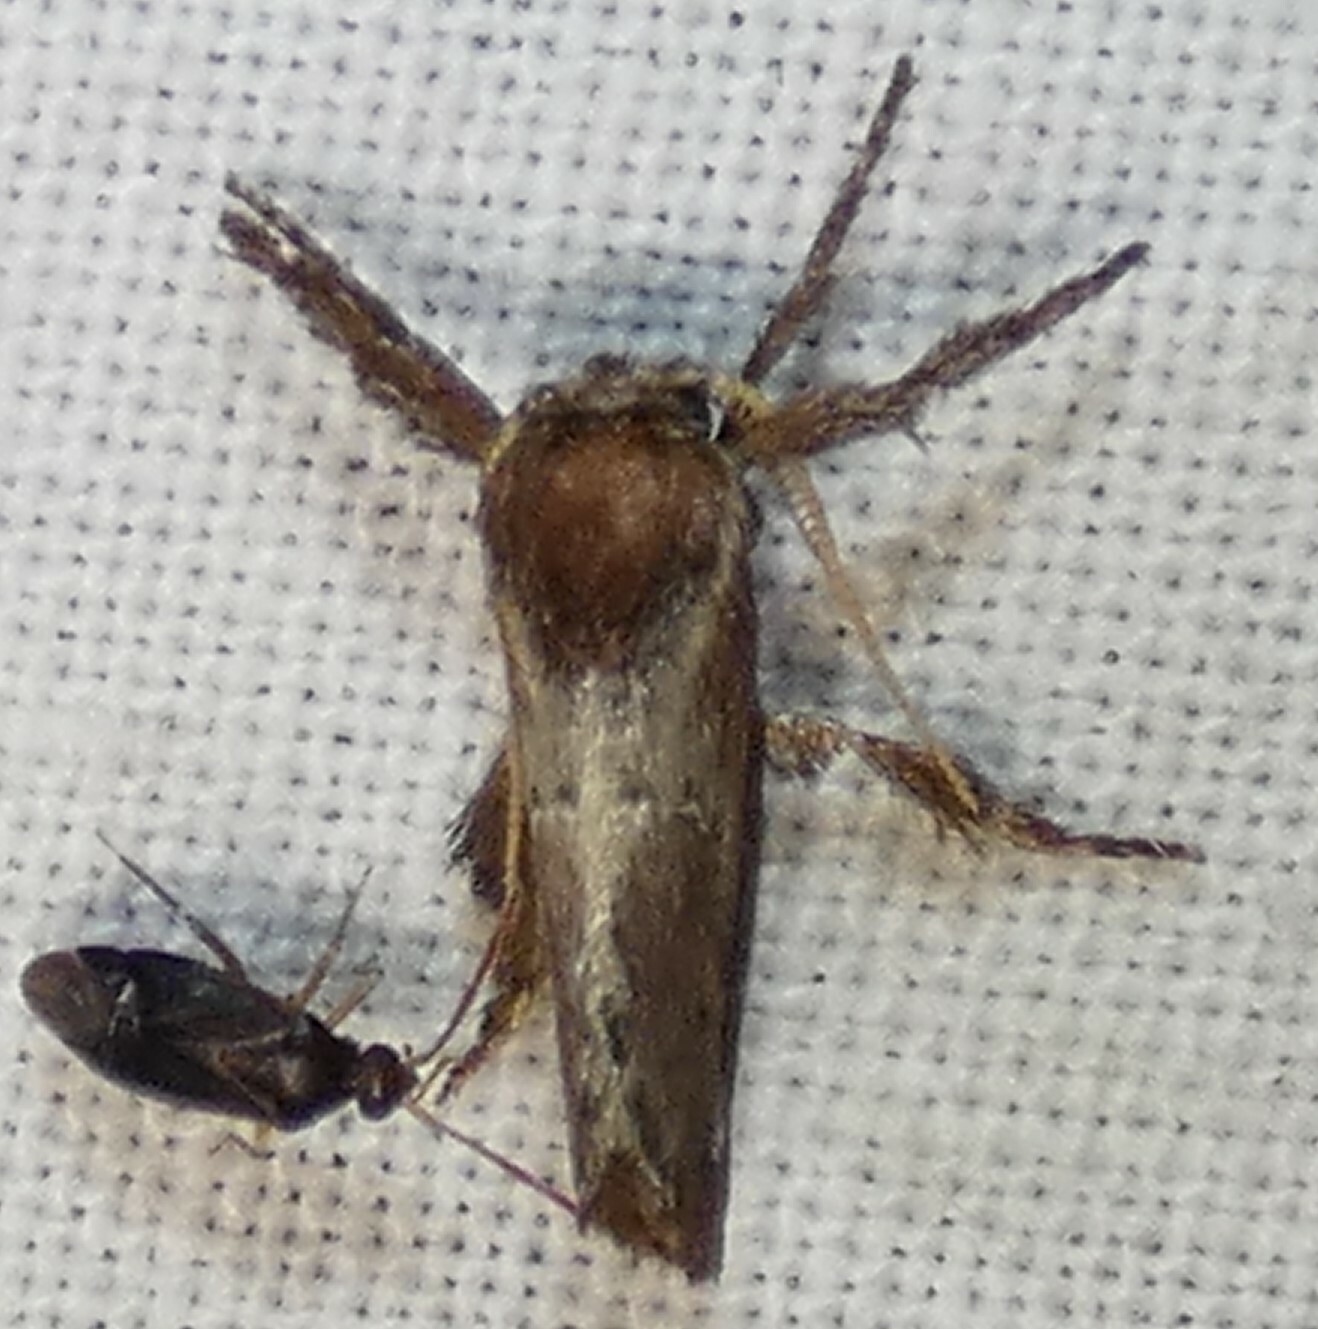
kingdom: Animalia
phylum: Arthropoda
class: Insecta
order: Lepidoptera
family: Limacodidae
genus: Adoneta
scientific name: Adoneta spinuloides
